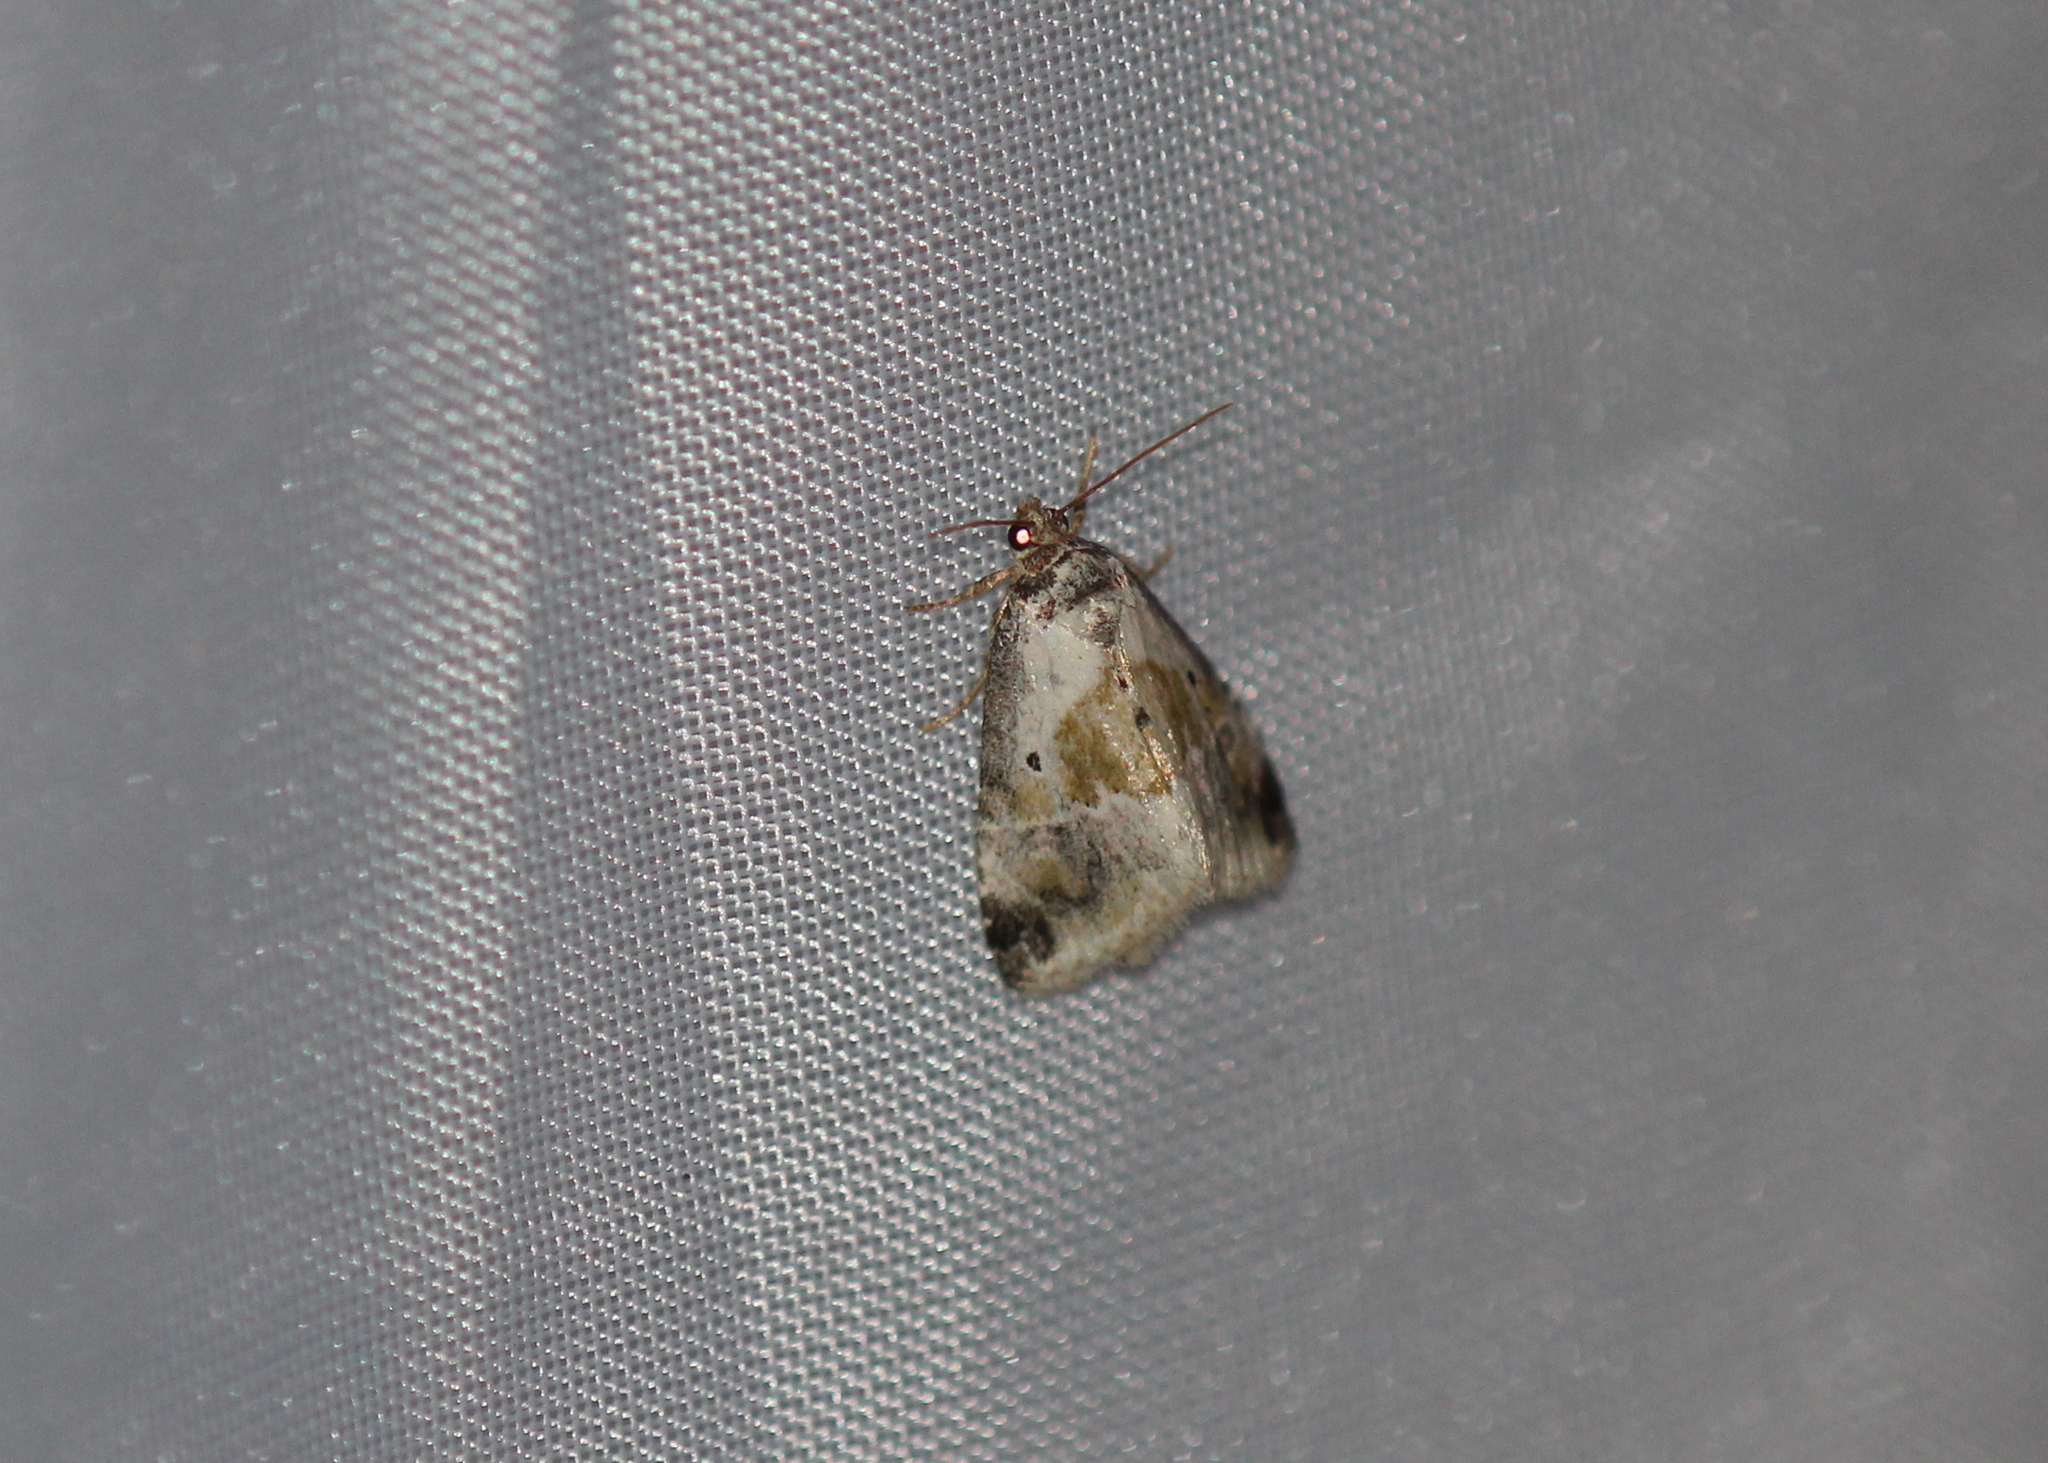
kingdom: Animalia
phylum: Arthropoda
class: Insecta
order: Lepidoptera
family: Noctuidae
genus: Maliattha
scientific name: Maliattha synochitis
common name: Black-dotted glyph
